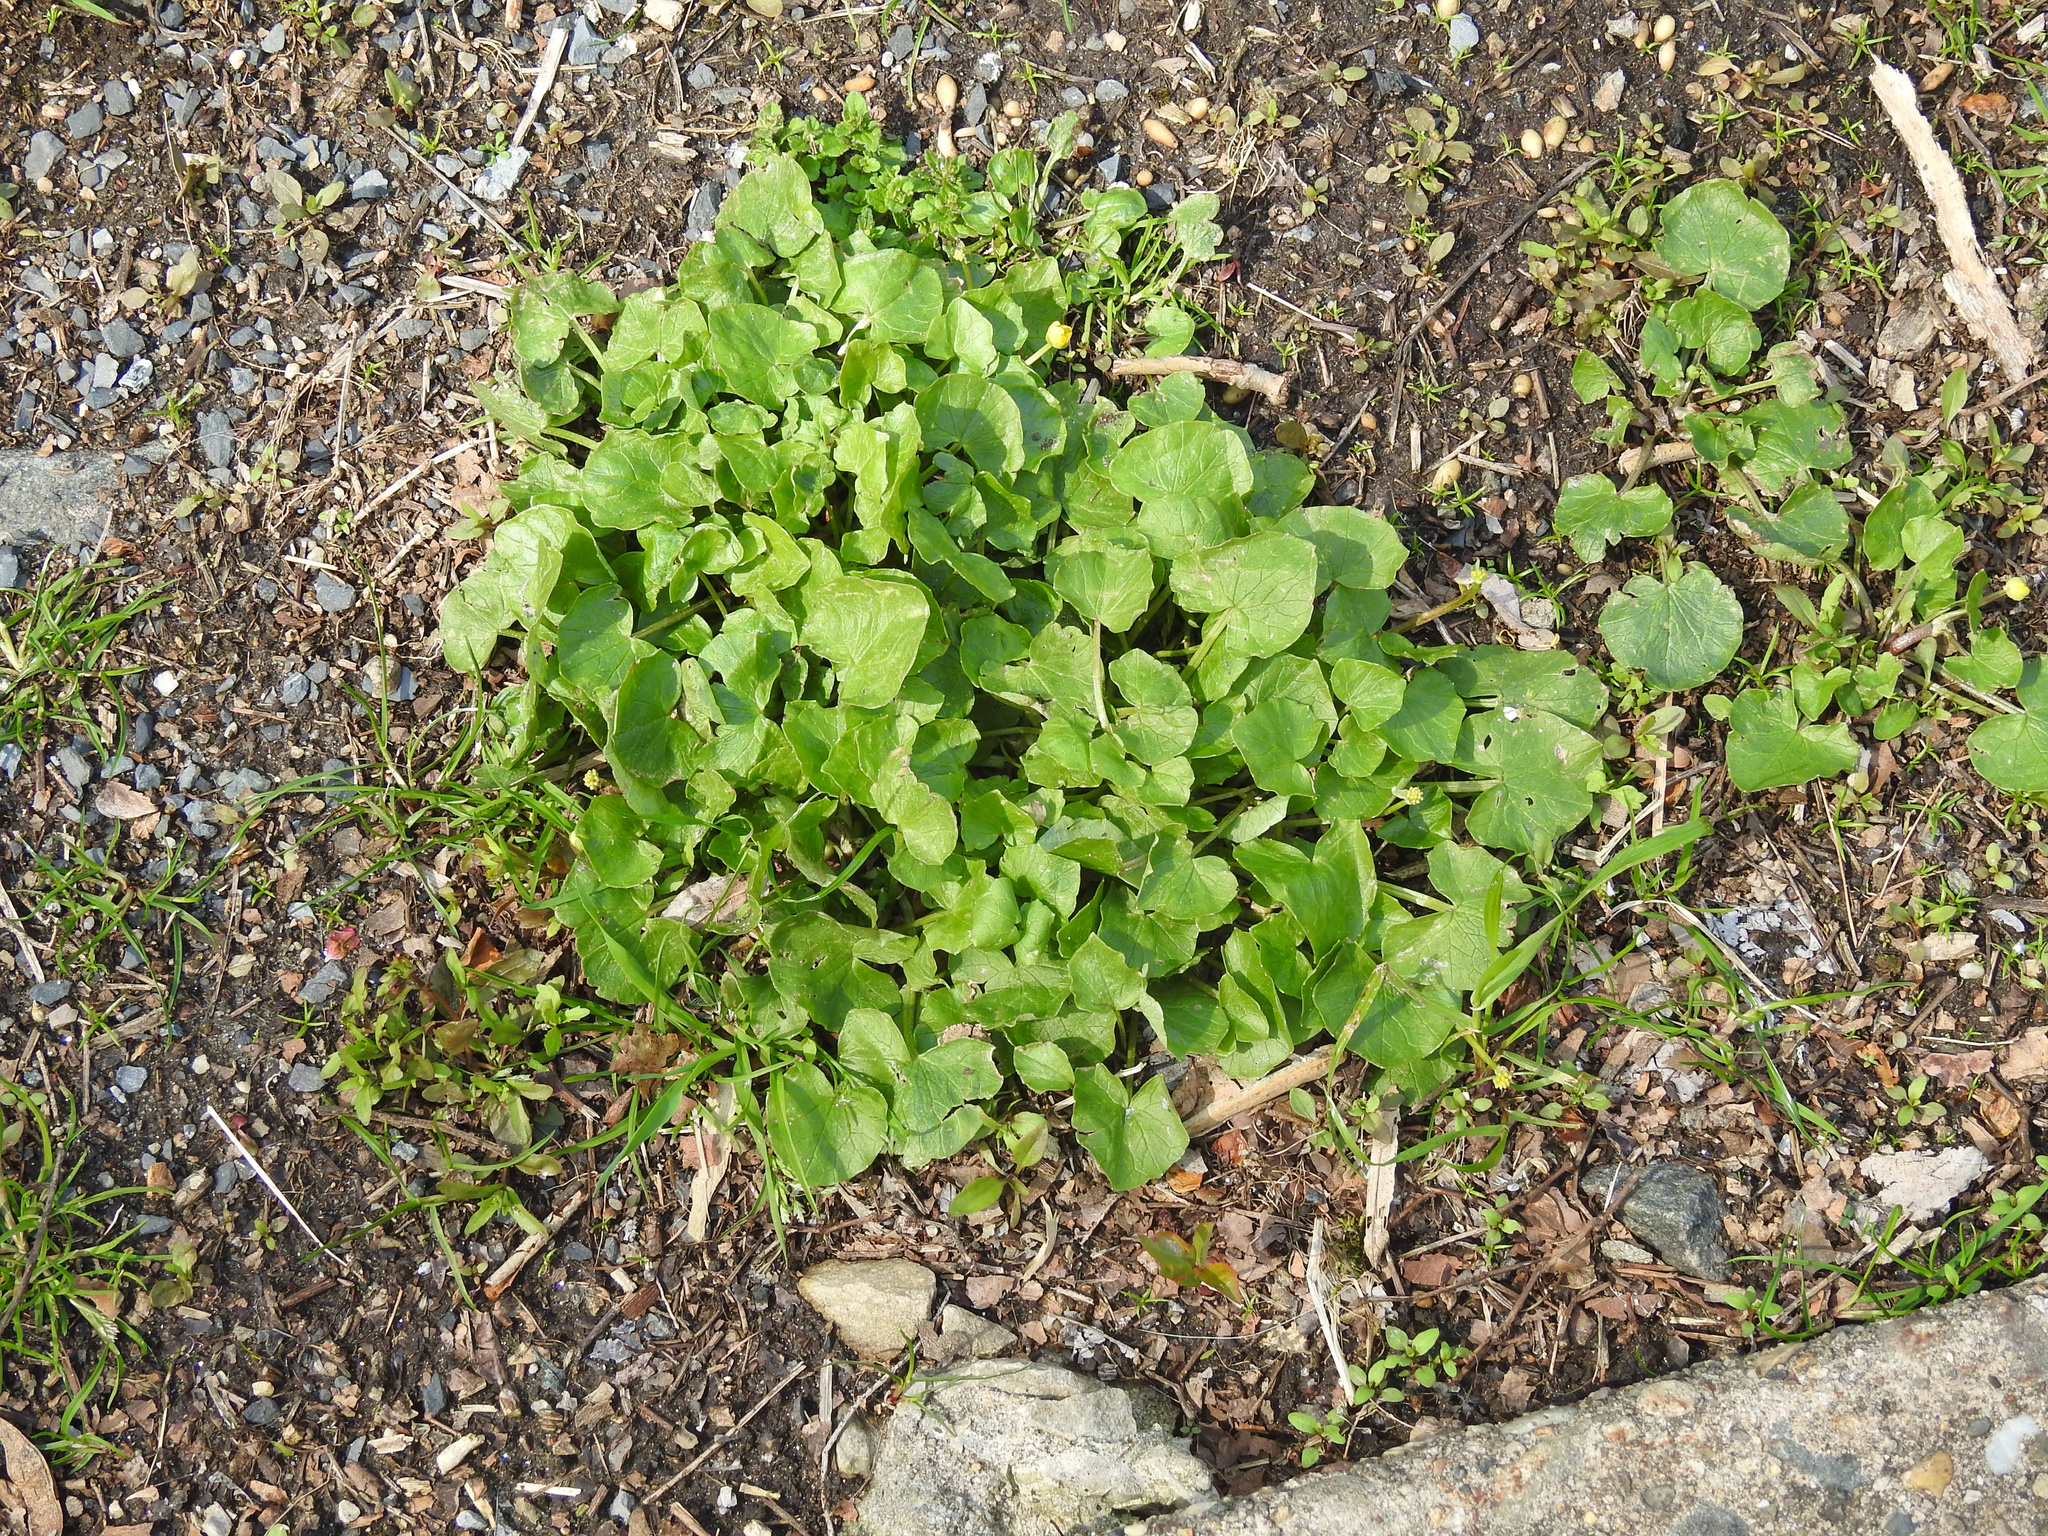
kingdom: Plantae
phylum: Tracheophyta
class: Magnoliopsida
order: Ranunculales
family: Ranunculaceae
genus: Ficaria
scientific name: Ficaria verna
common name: Lesser celandine
